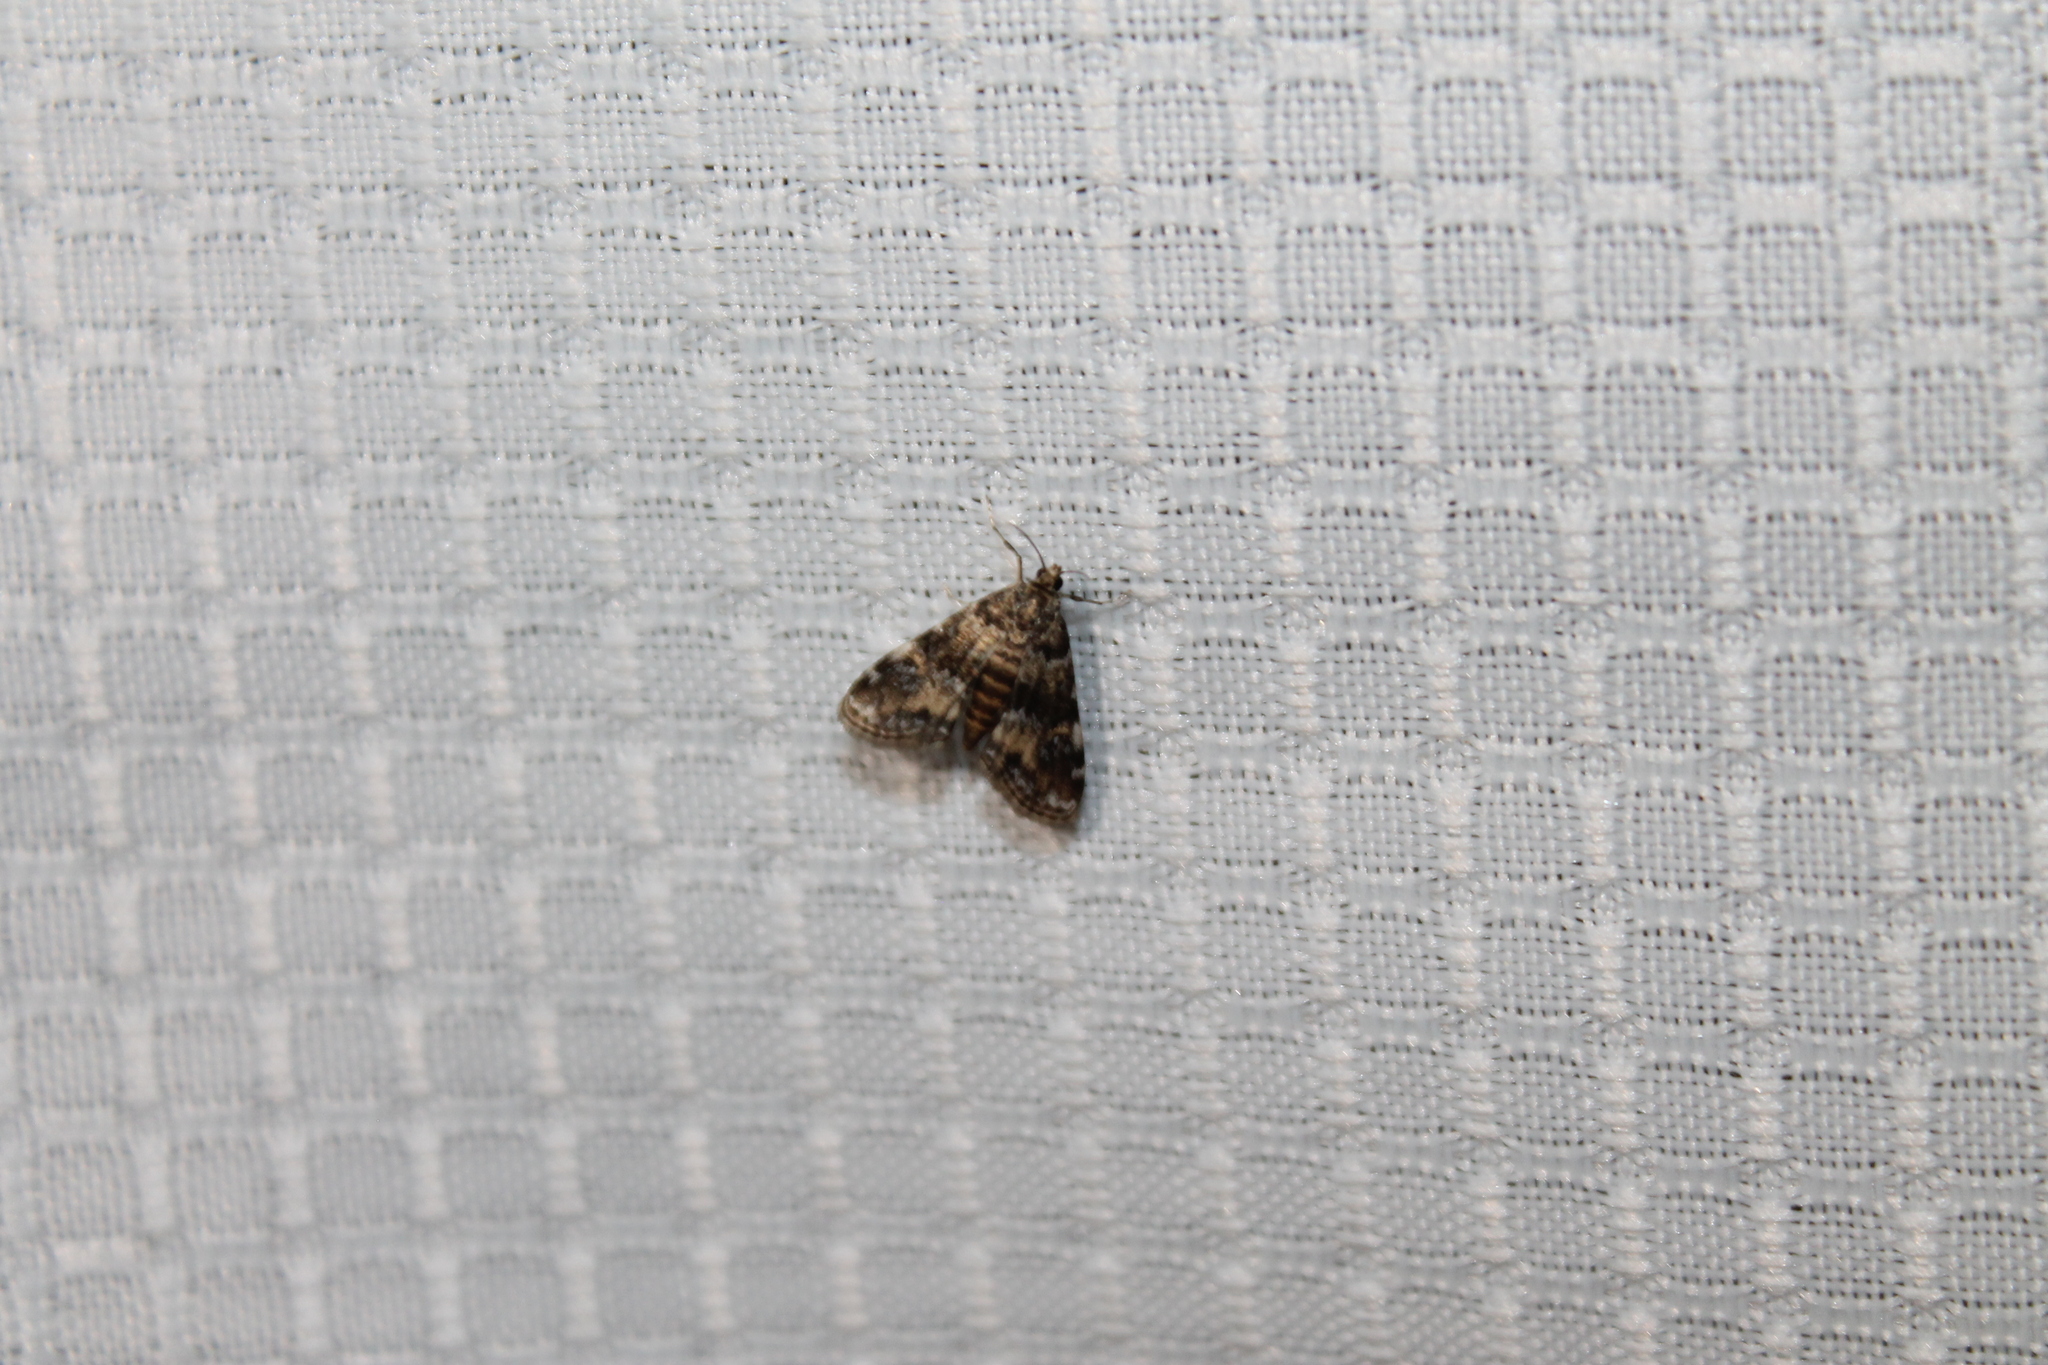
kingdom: Animalia
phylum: Arthropoda
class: Insecta
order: Lepidoptera
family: Crambidae
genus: Elophila
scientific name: Elophila obliteralis
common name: Waterlily leafcutter moth
